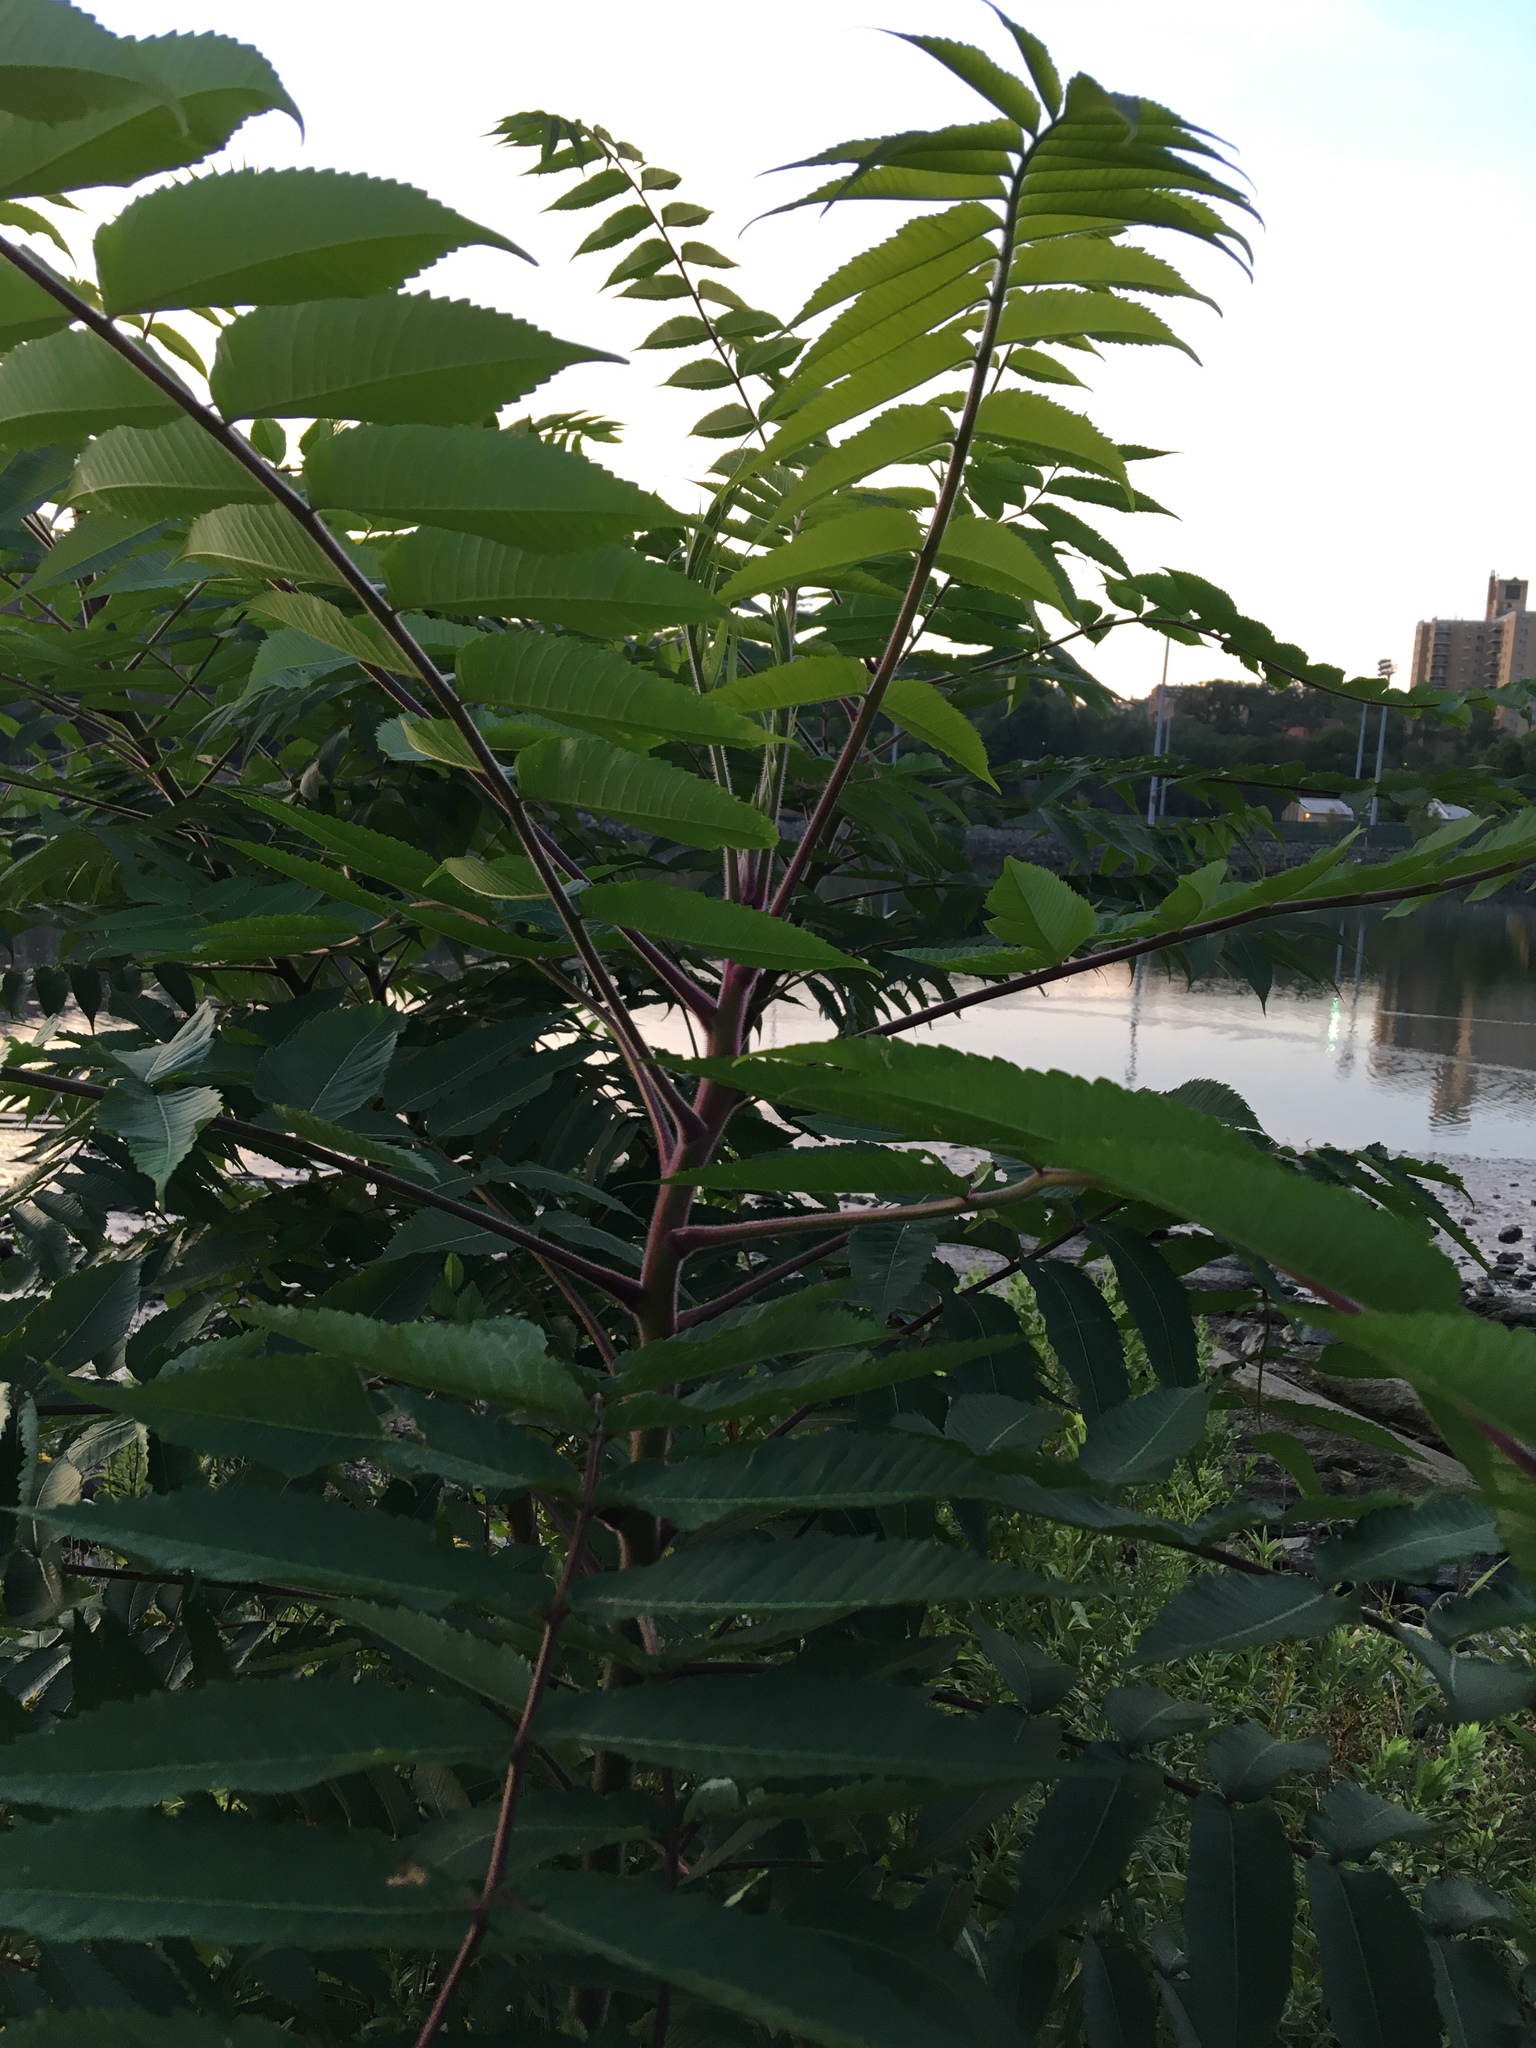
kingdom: Plantae
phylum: Tracheophyta
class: Magnoliopsida
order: Sapindales
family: Anacardiaceae
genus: Rhus
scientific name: Rhus typhina
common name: Staghorn sumac
